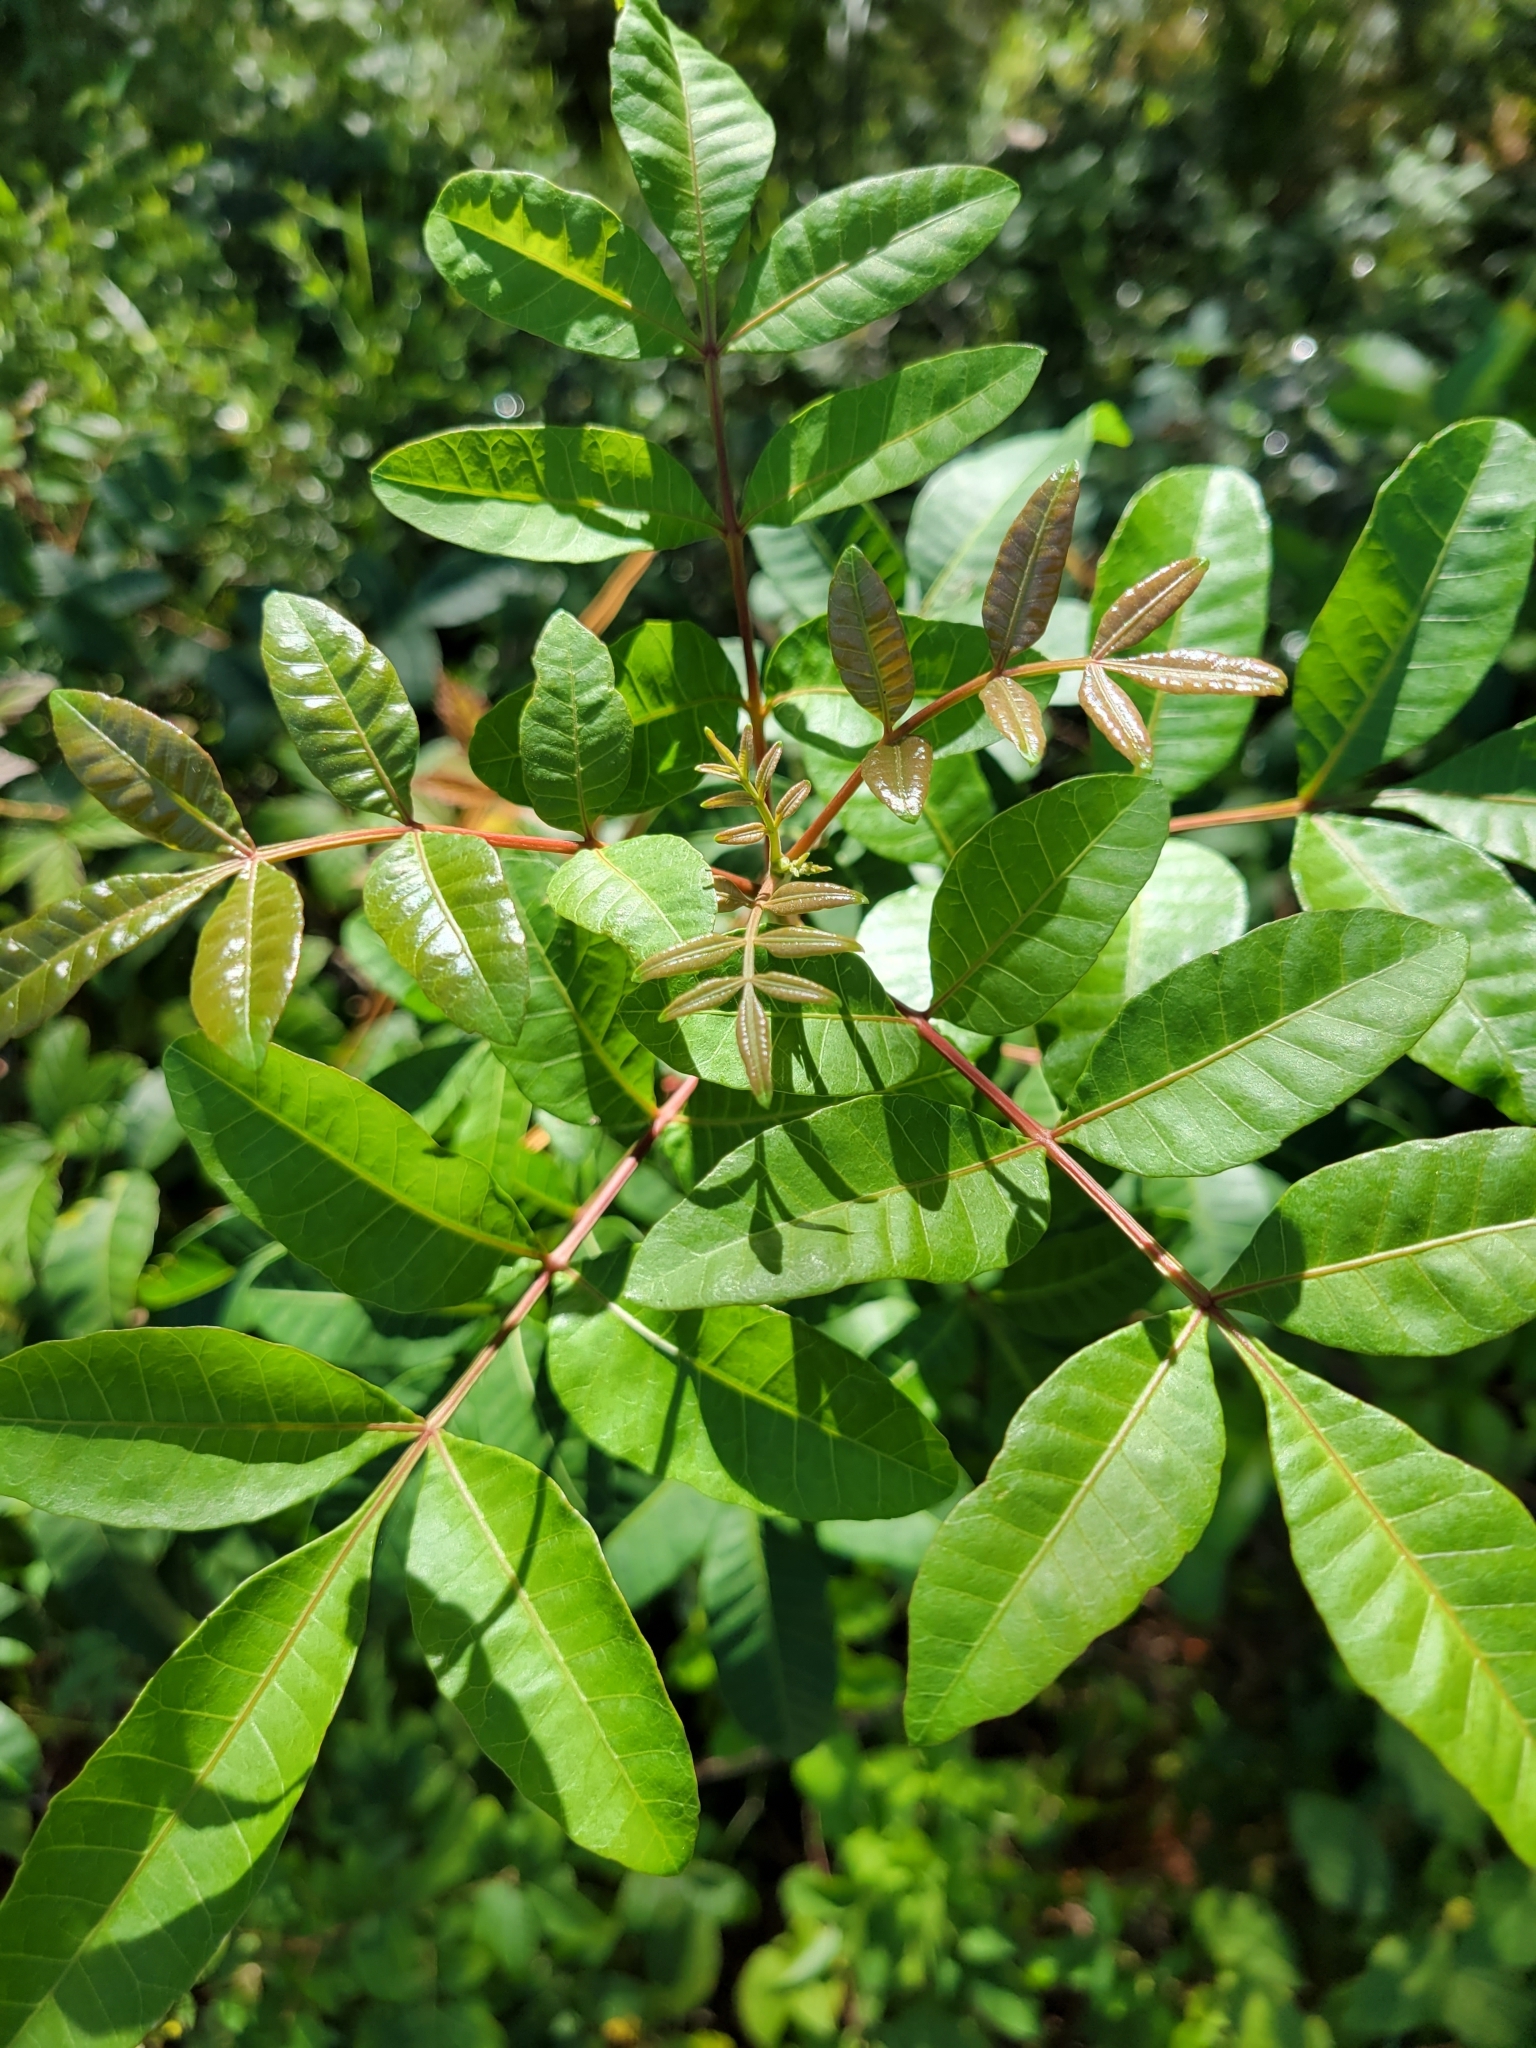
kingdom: Plantae
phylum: Tracheophyta
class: Magnoliopsida
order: Sapindales
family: Anacardiaceae
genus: Schinus
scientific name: Schinus terebinthifolia
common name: Brazilian peppertree
